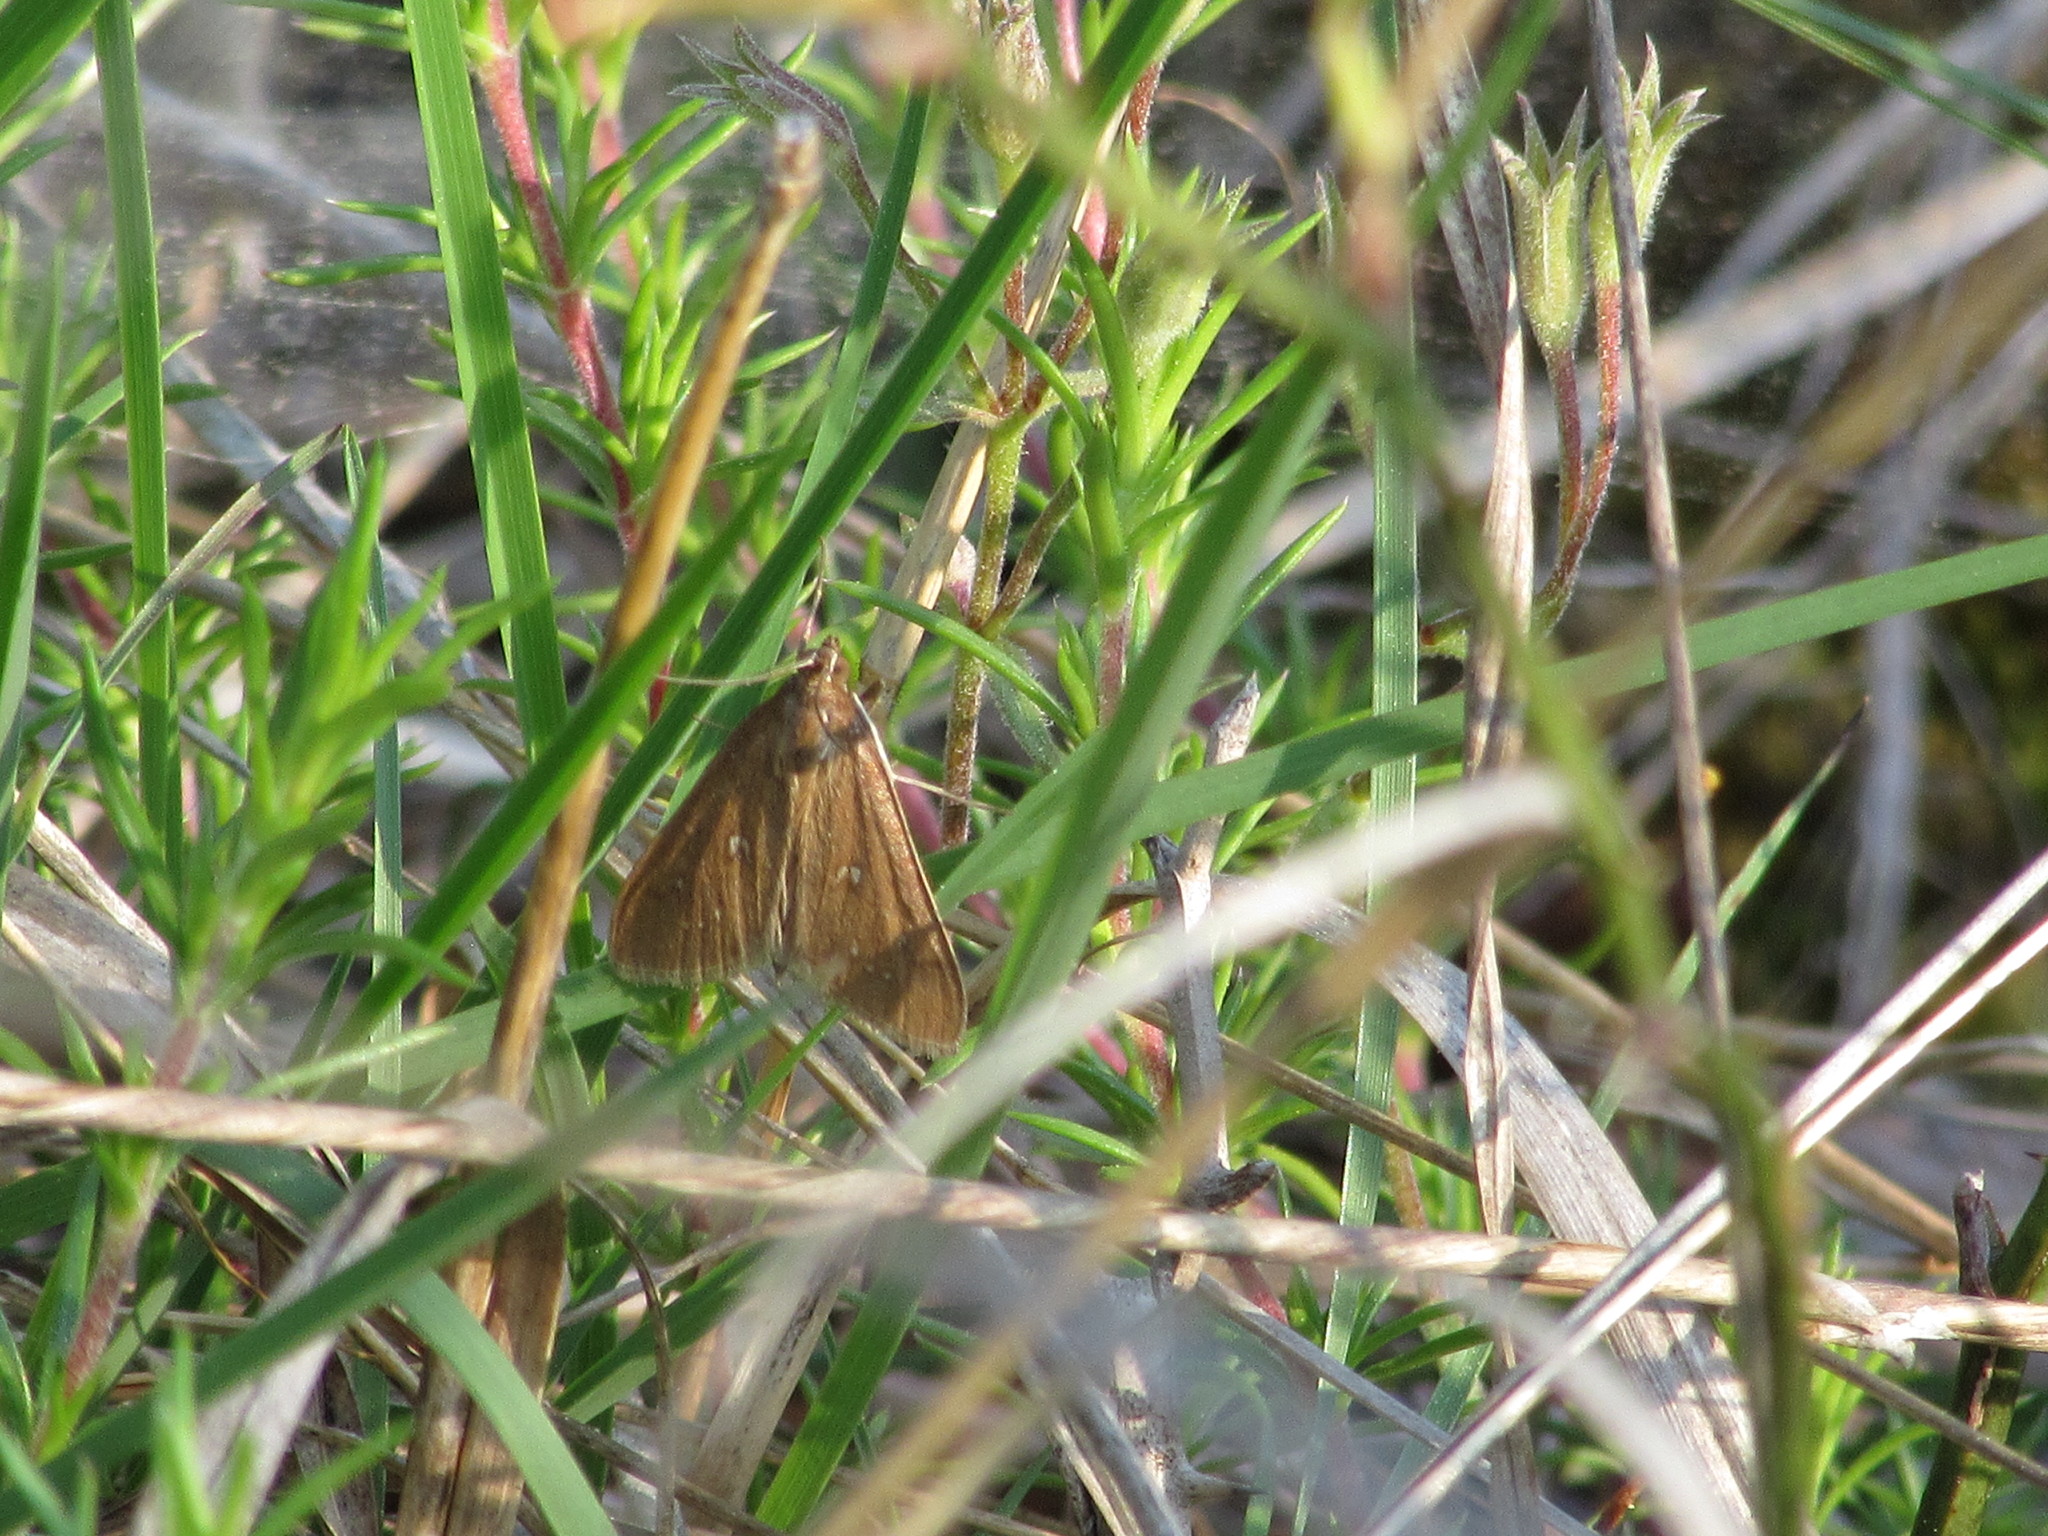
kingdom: Animalia
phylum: Arthropoda
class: Insecta
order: Lepidoptera
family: Crambidae
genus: Diastictis
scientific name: Diastictis ventralis
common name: White-spotted brown
